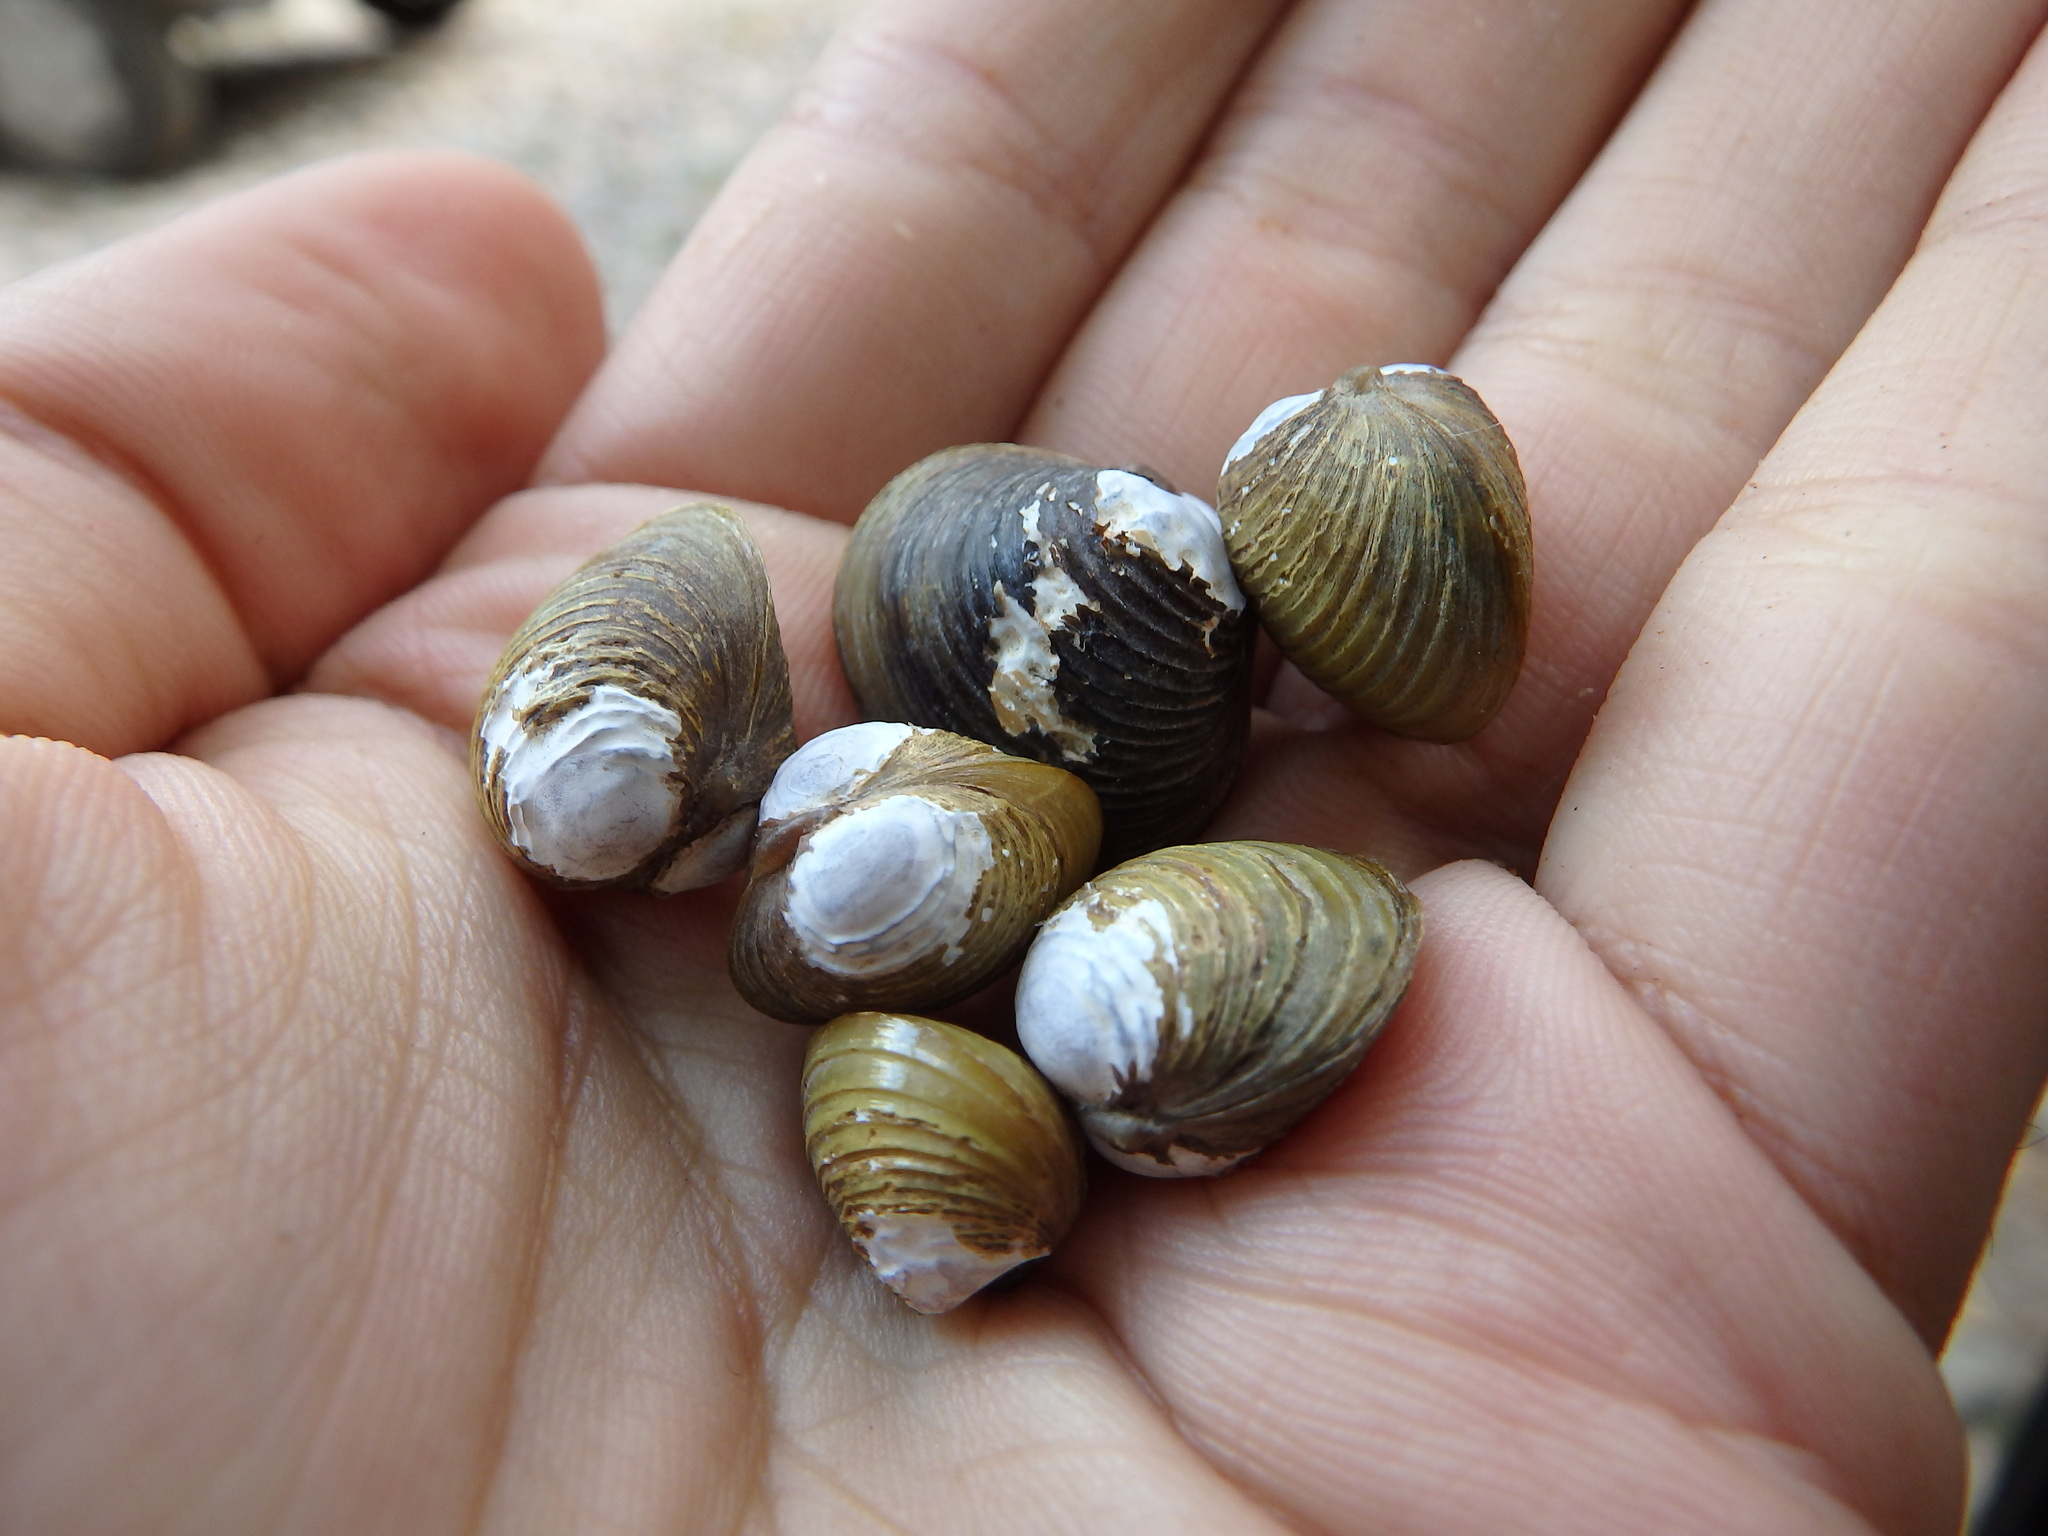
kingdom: Animalia
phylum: Mollusca
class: Bivalvia
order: Venerida
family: Cyrenidae
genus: Corbicula
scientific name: Corbicula fluminea
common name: Asian clam
